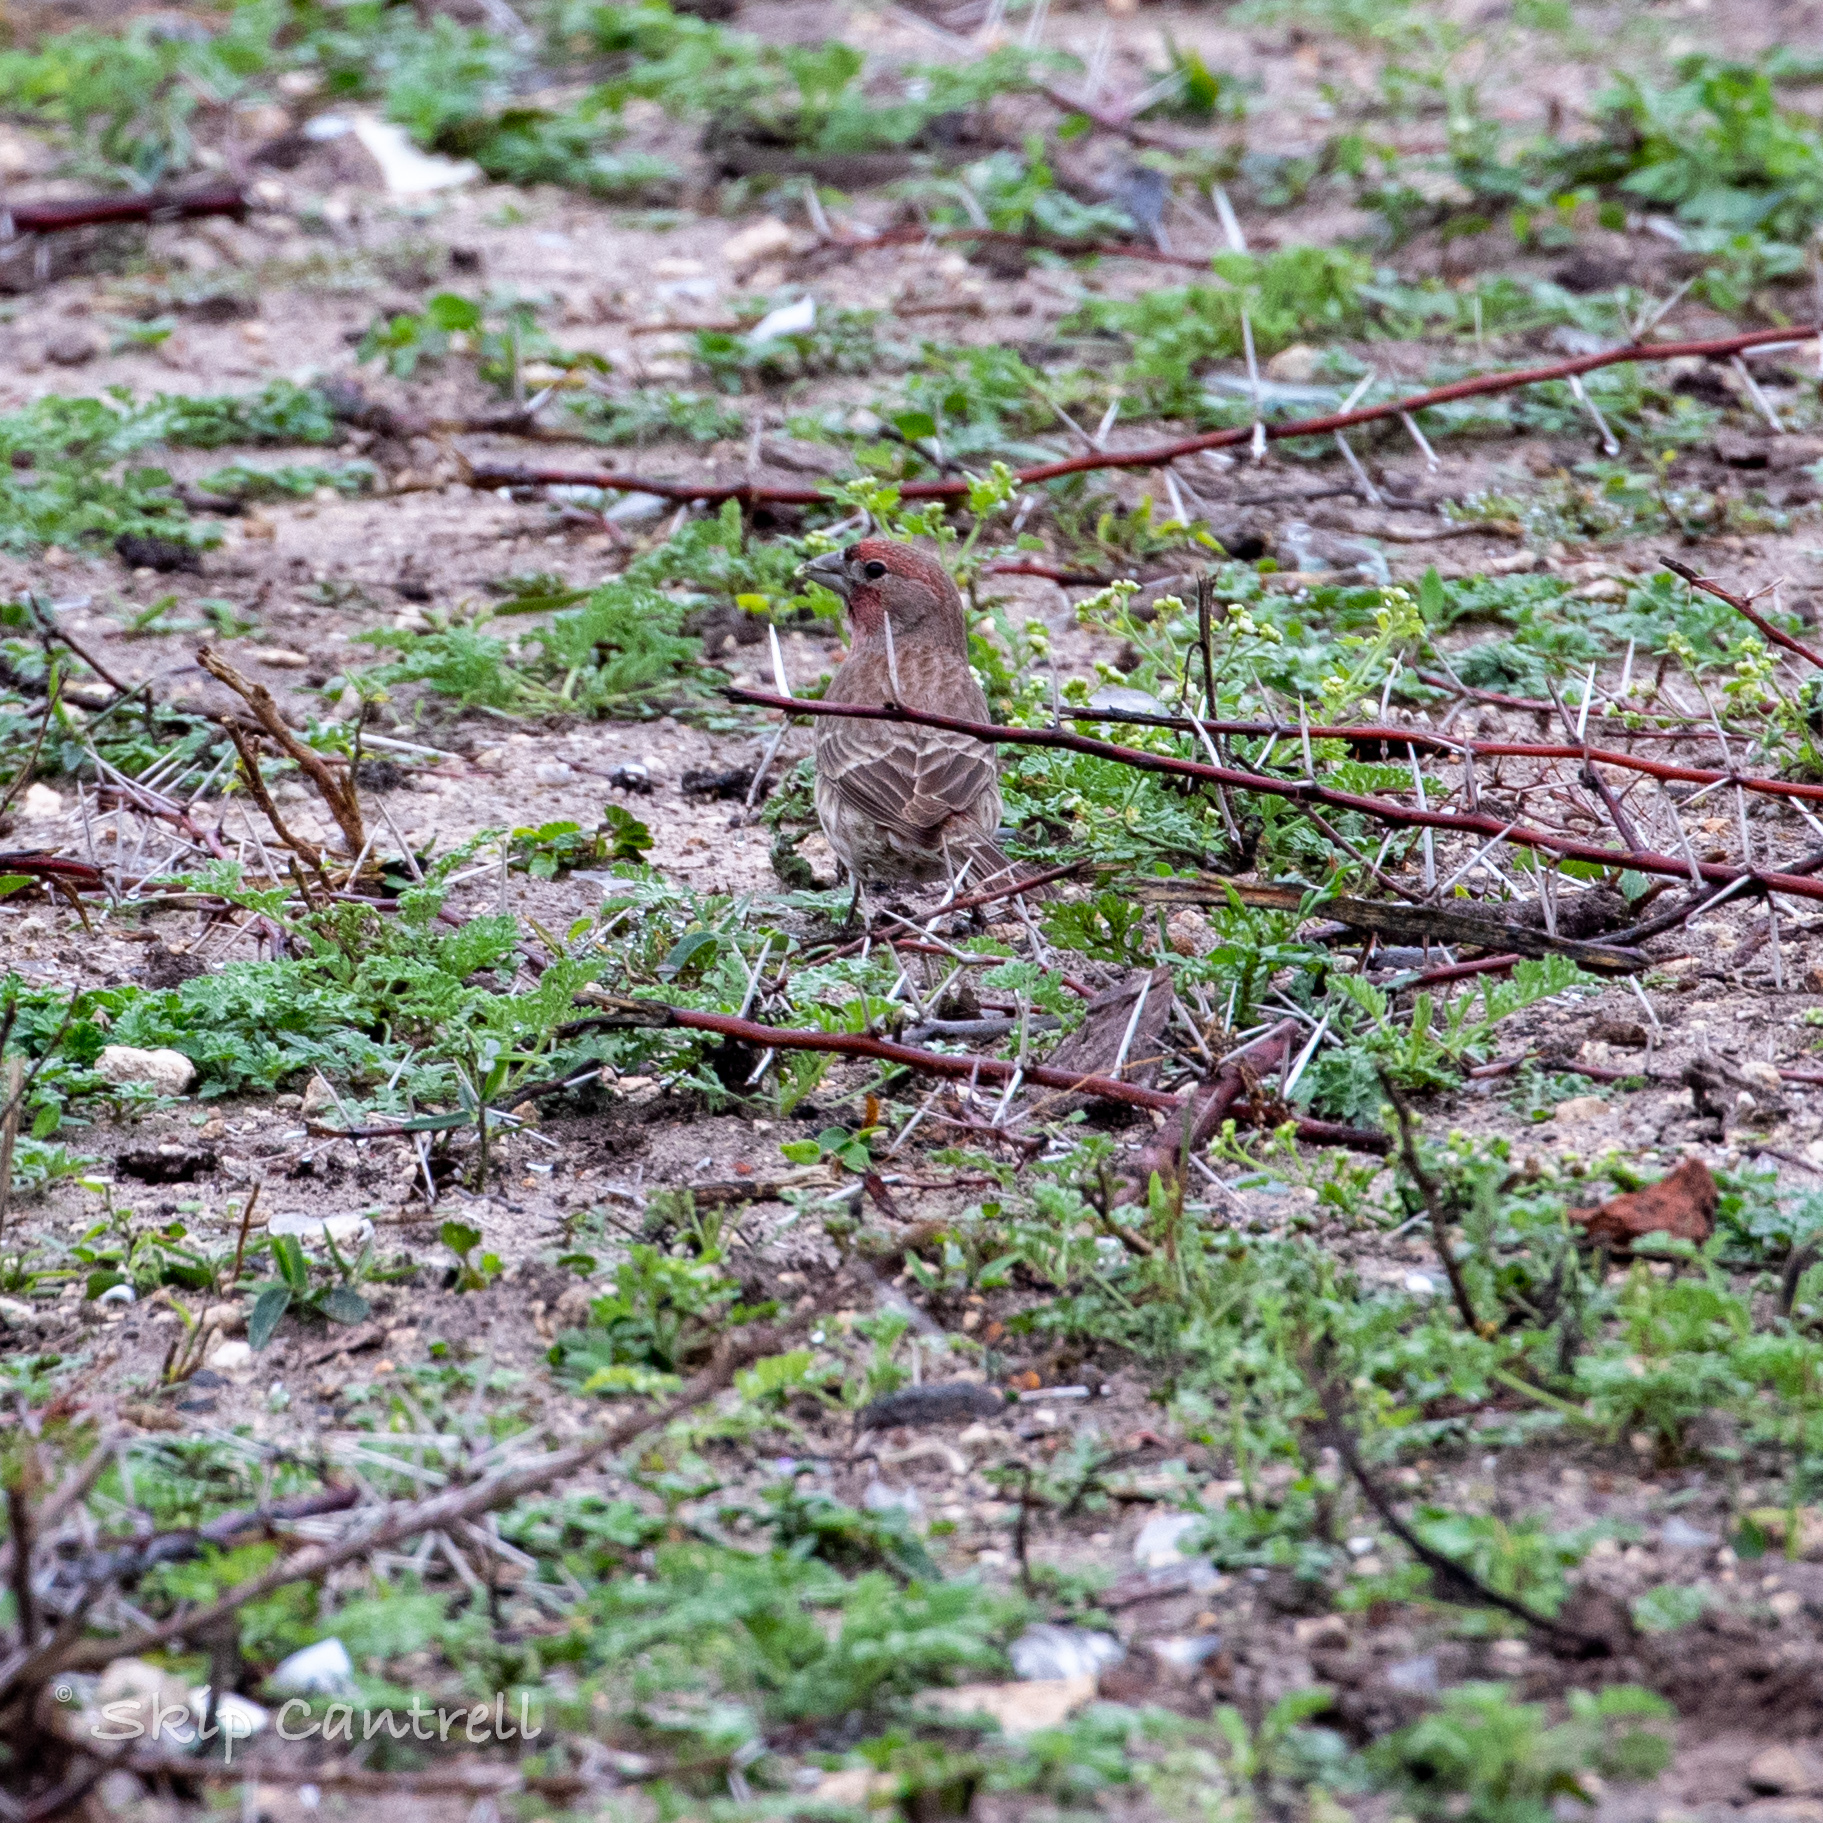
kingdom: Animalia
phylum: Chordata
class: Aves
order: Passeriformes
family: Fringillidae
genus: Haemorhous
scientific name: Haemorhous mexicanus
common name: House finch
